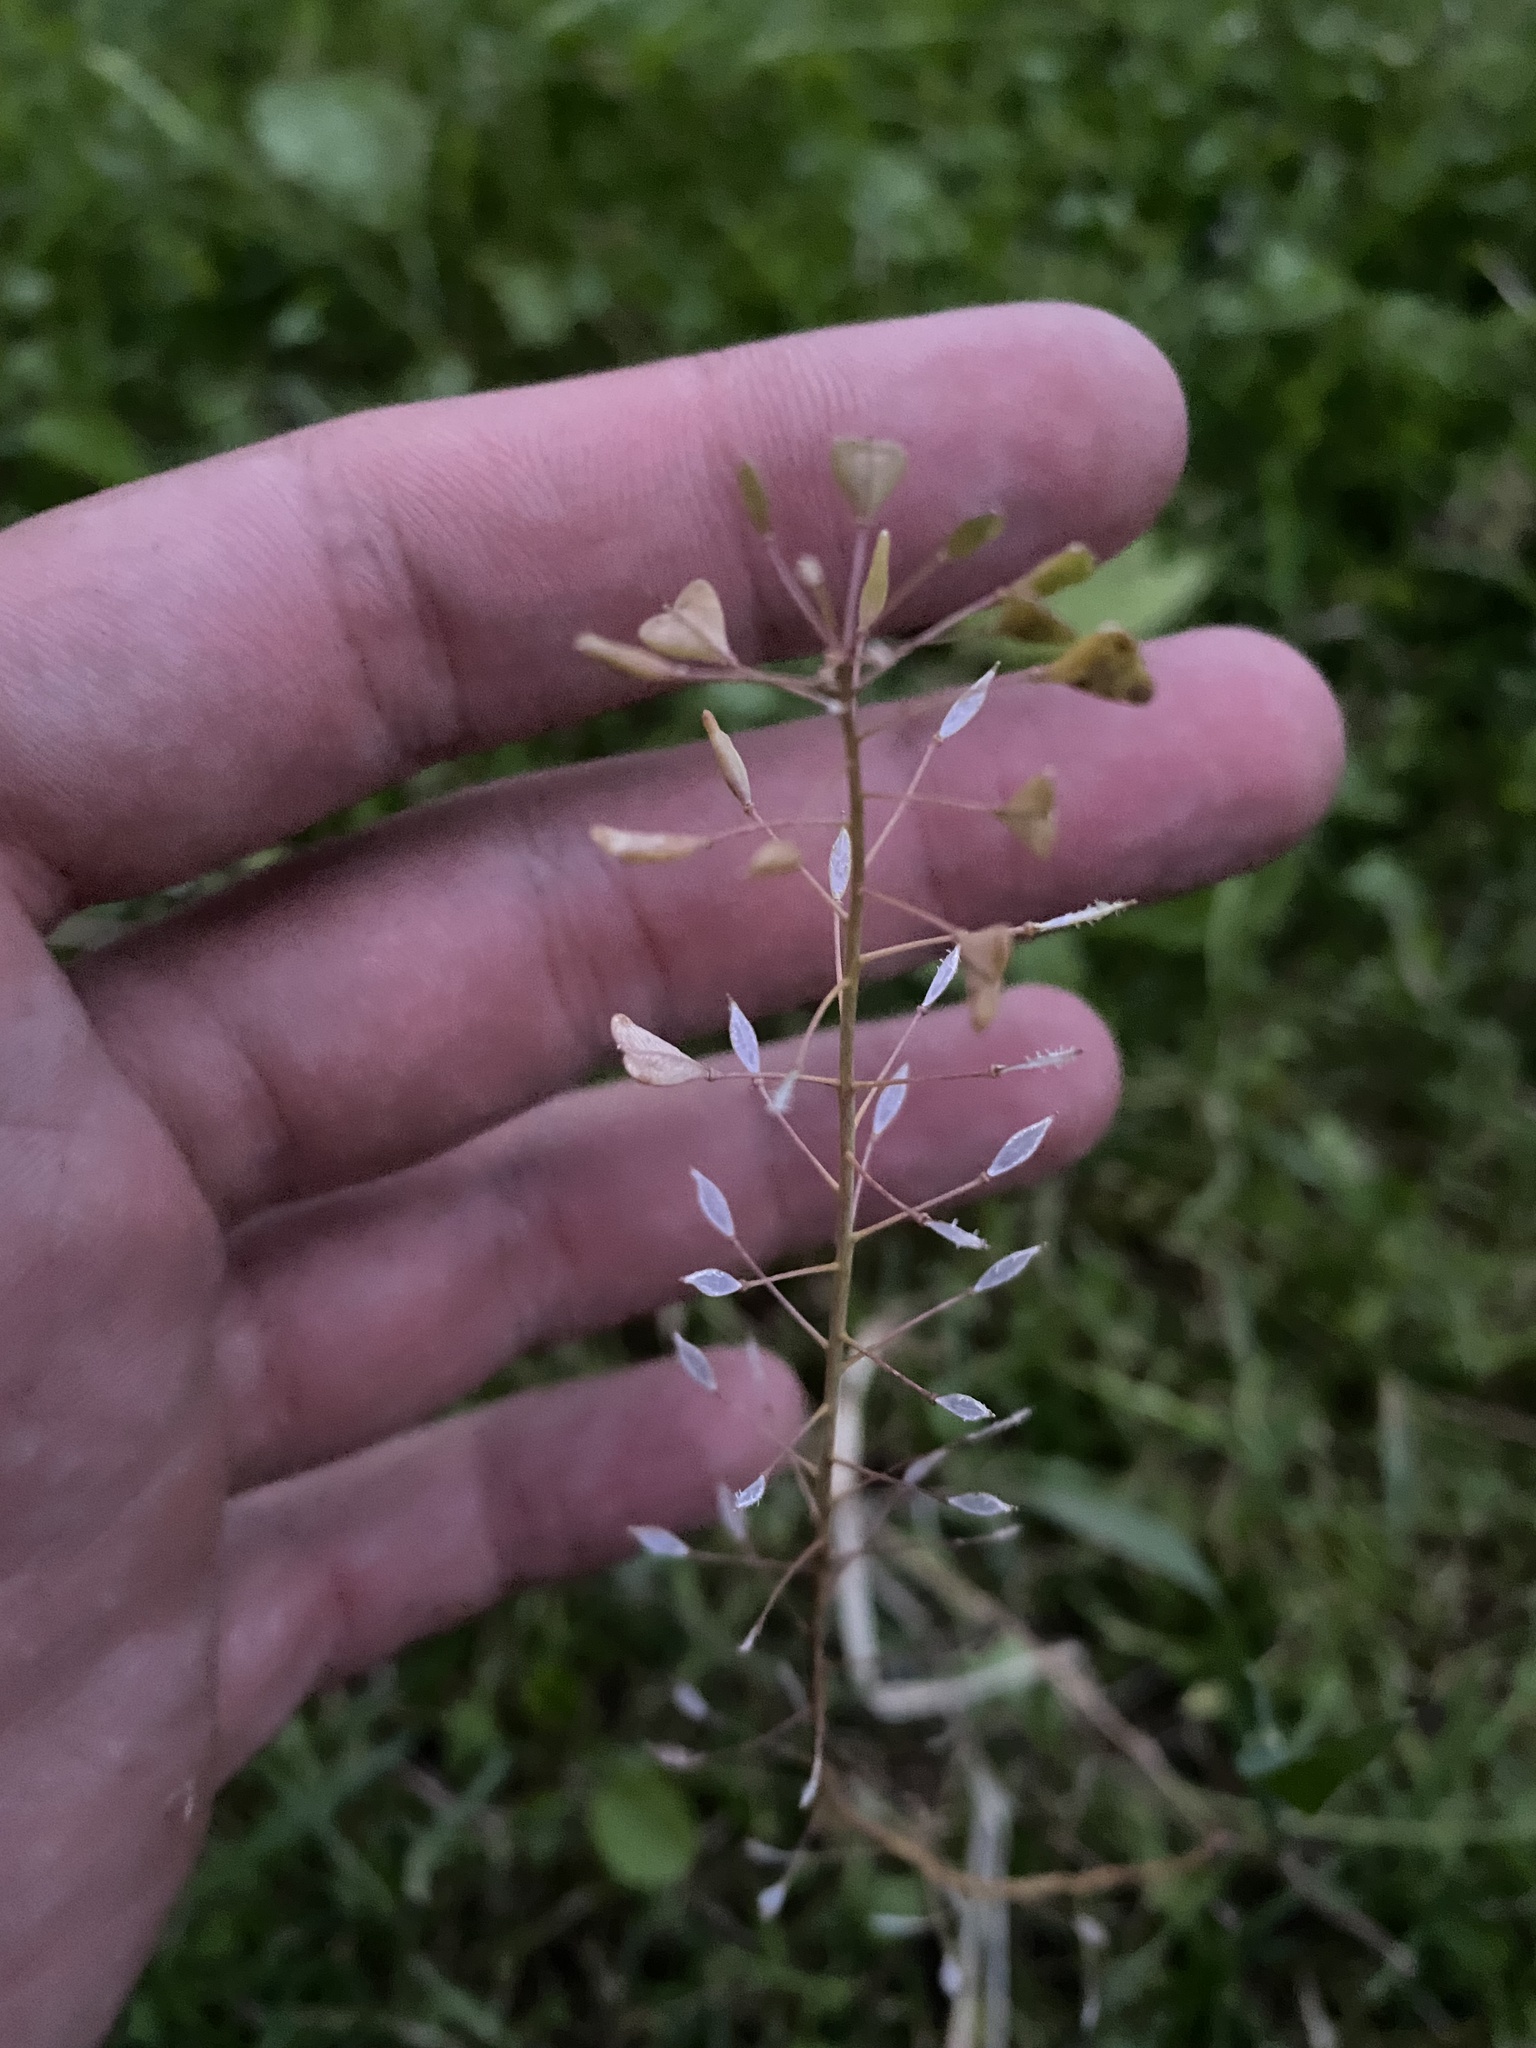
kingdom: Plantae
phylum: Tracheophyta
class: Magnoliopsida
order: Brassicales
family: Brassicaceae
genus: Capsella
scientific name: Capsella bursa-pastoris
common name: Shepherd's purse
